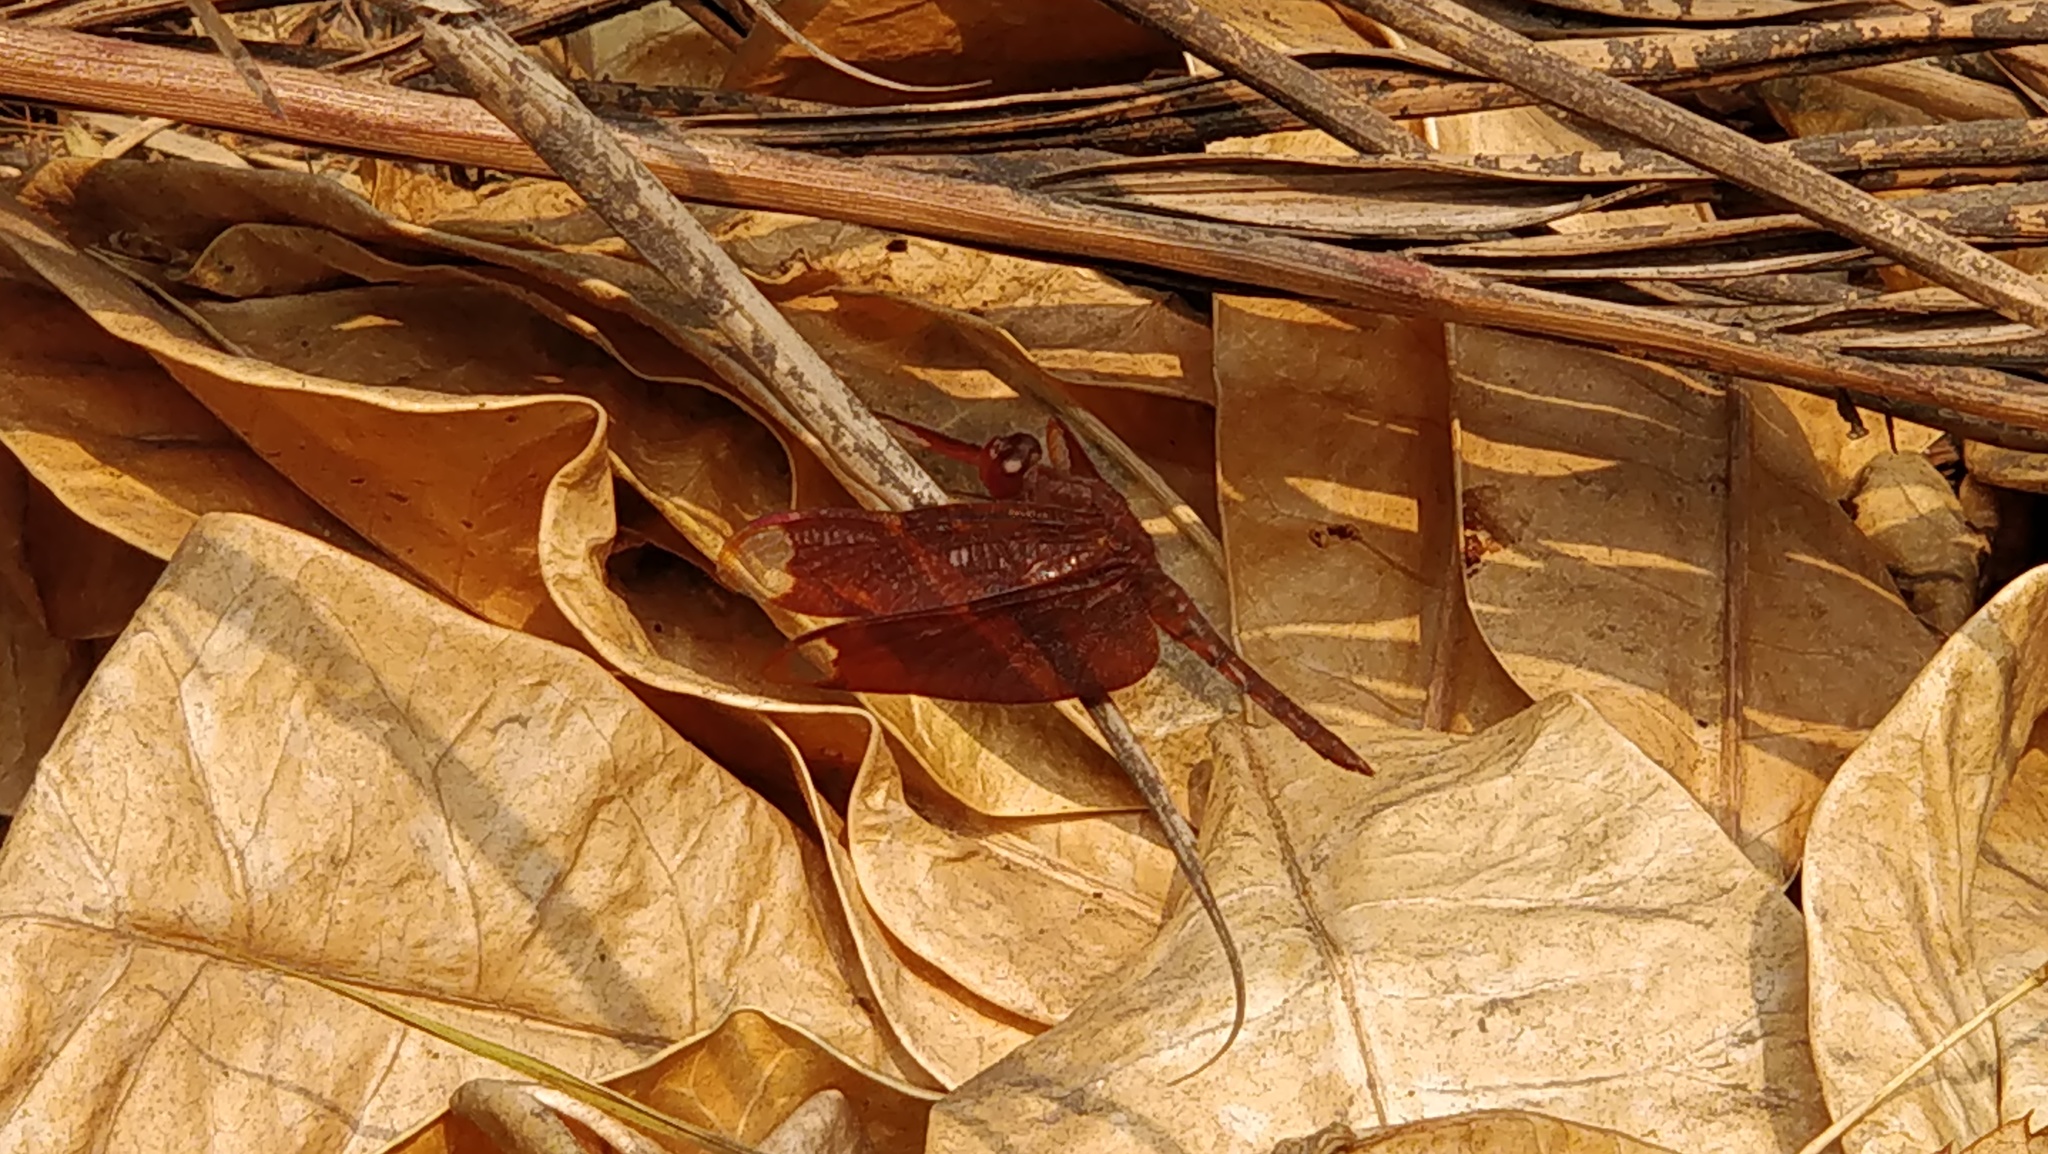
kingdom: Animalia
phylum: Arthropoda
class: Insecta
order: Odonata
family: Libellulidae
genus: Neurothemis
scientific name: Neurothemis fulvia
